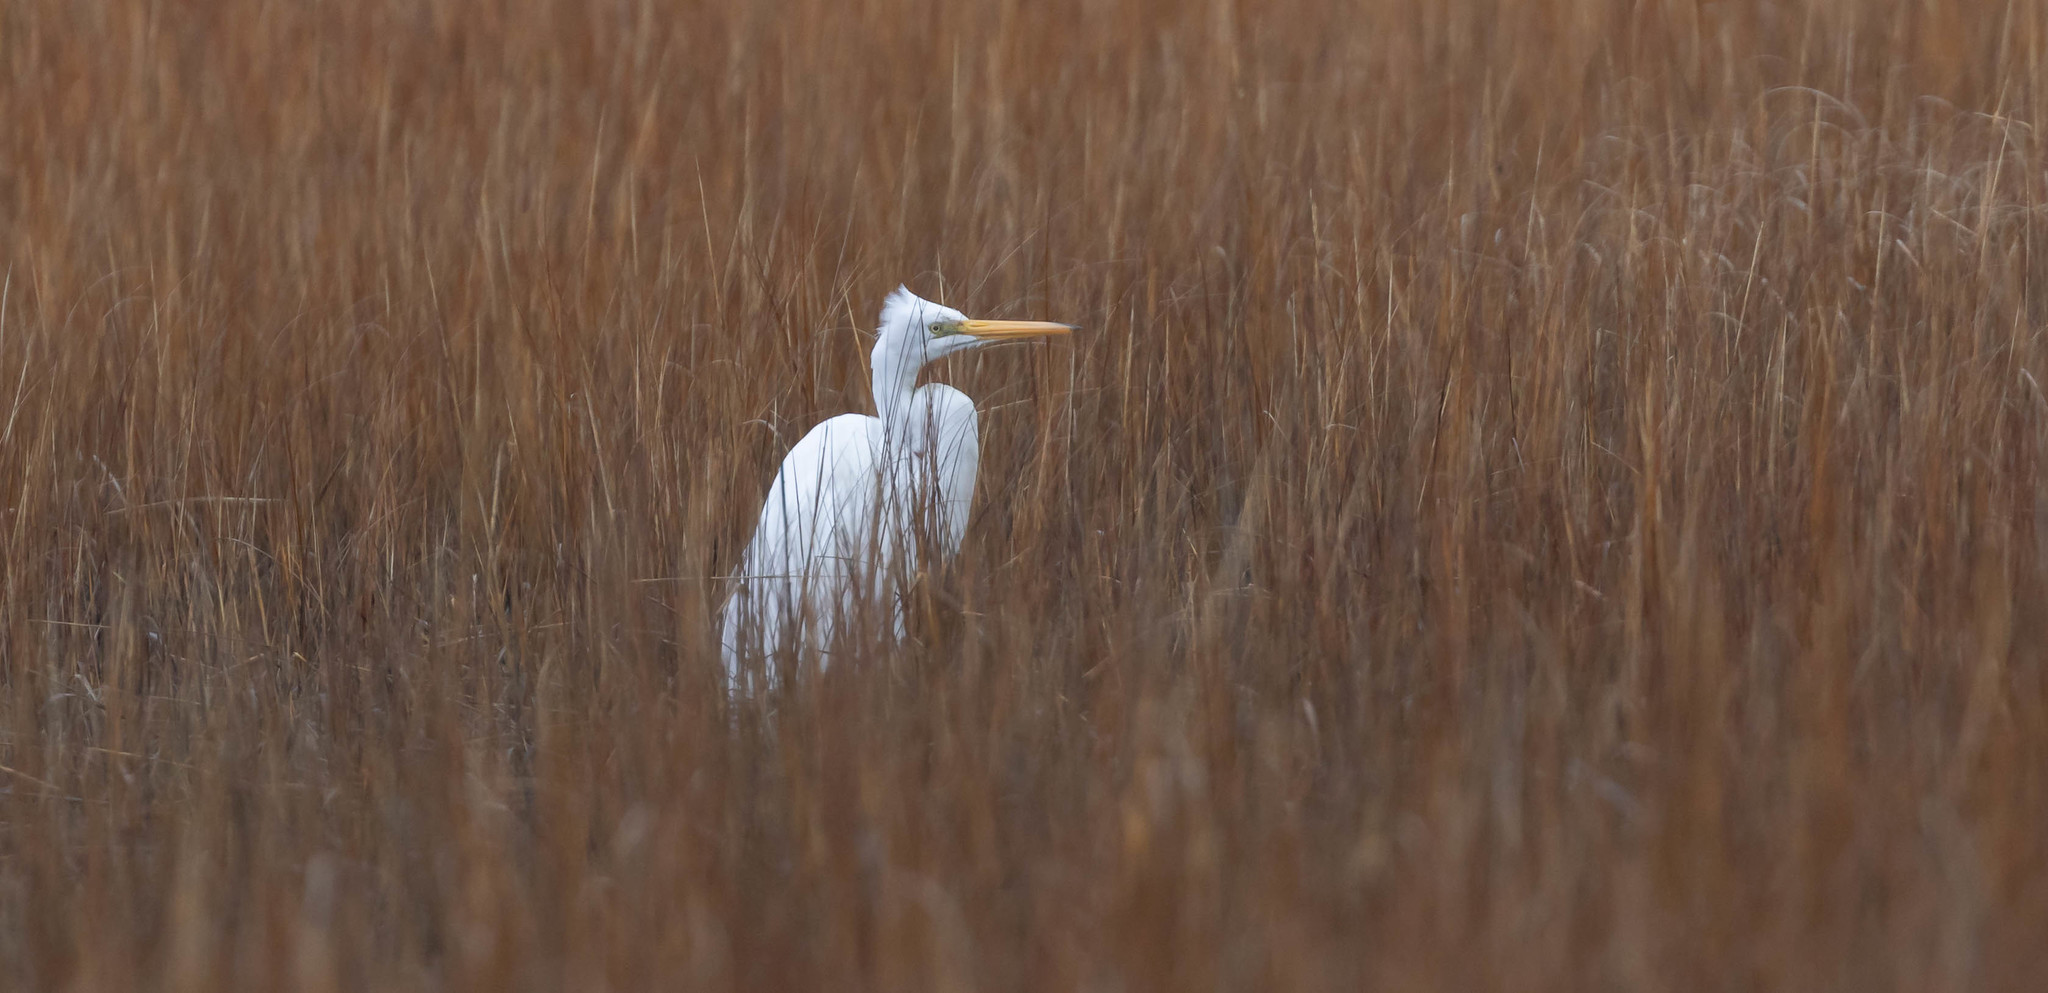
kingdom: Animalia
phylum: Chordata
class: Aves
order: Pelecaniformes
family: Ardeidae
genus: Ardea
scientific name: Ardea alba
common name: Great egret
